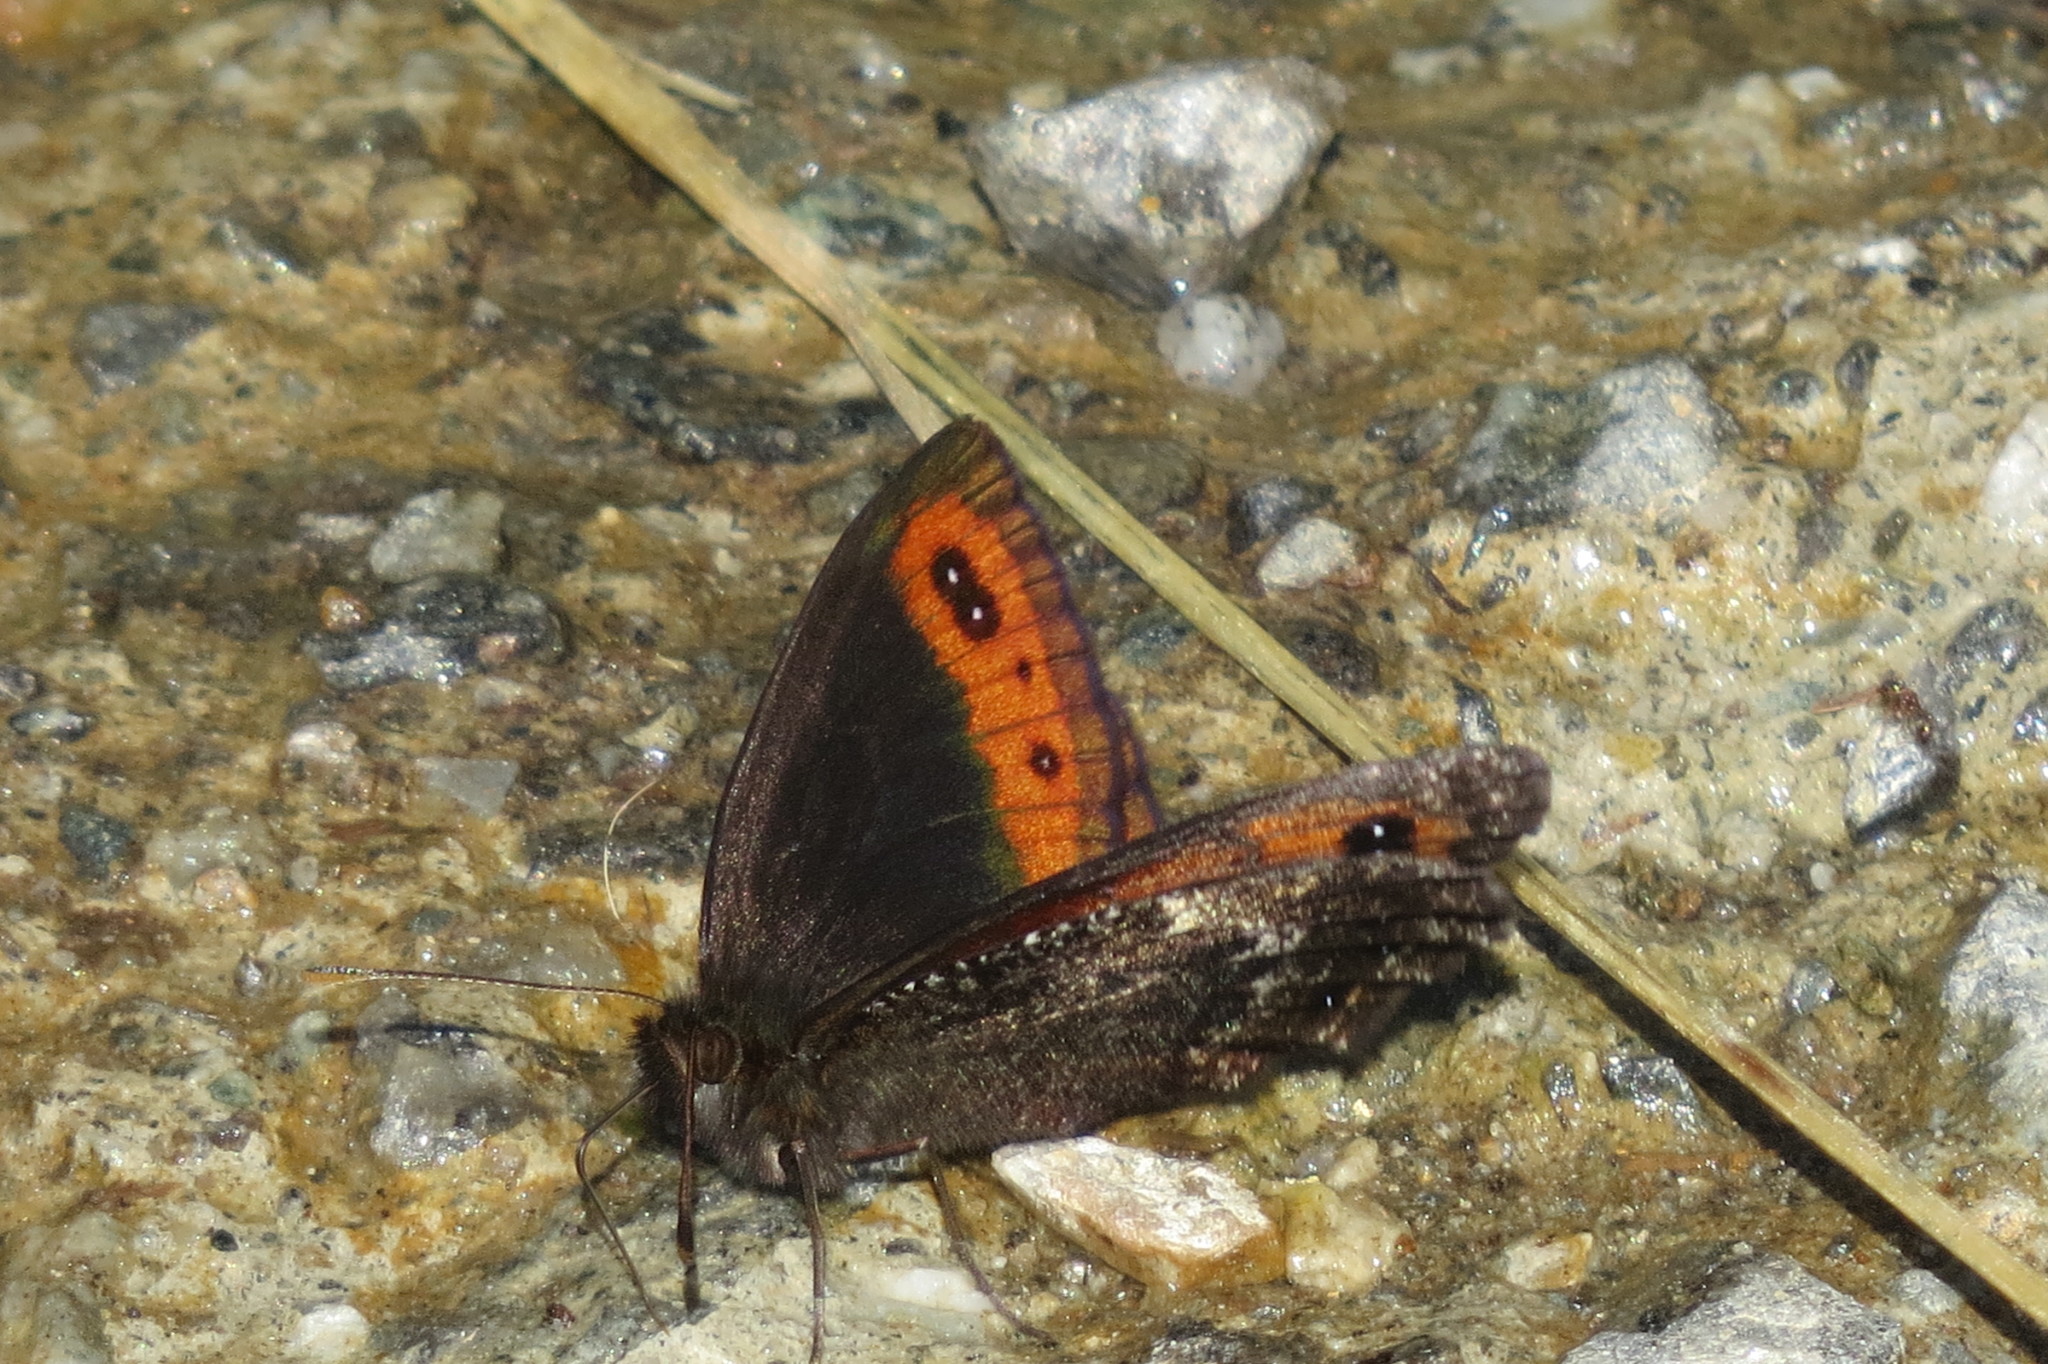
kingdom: Animalia
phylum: Arthropoda
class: Insecta
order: Lepidoptera
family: Nymphalidae
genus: Erebia
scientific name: Erebia montanus
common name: Marbled ringlet
